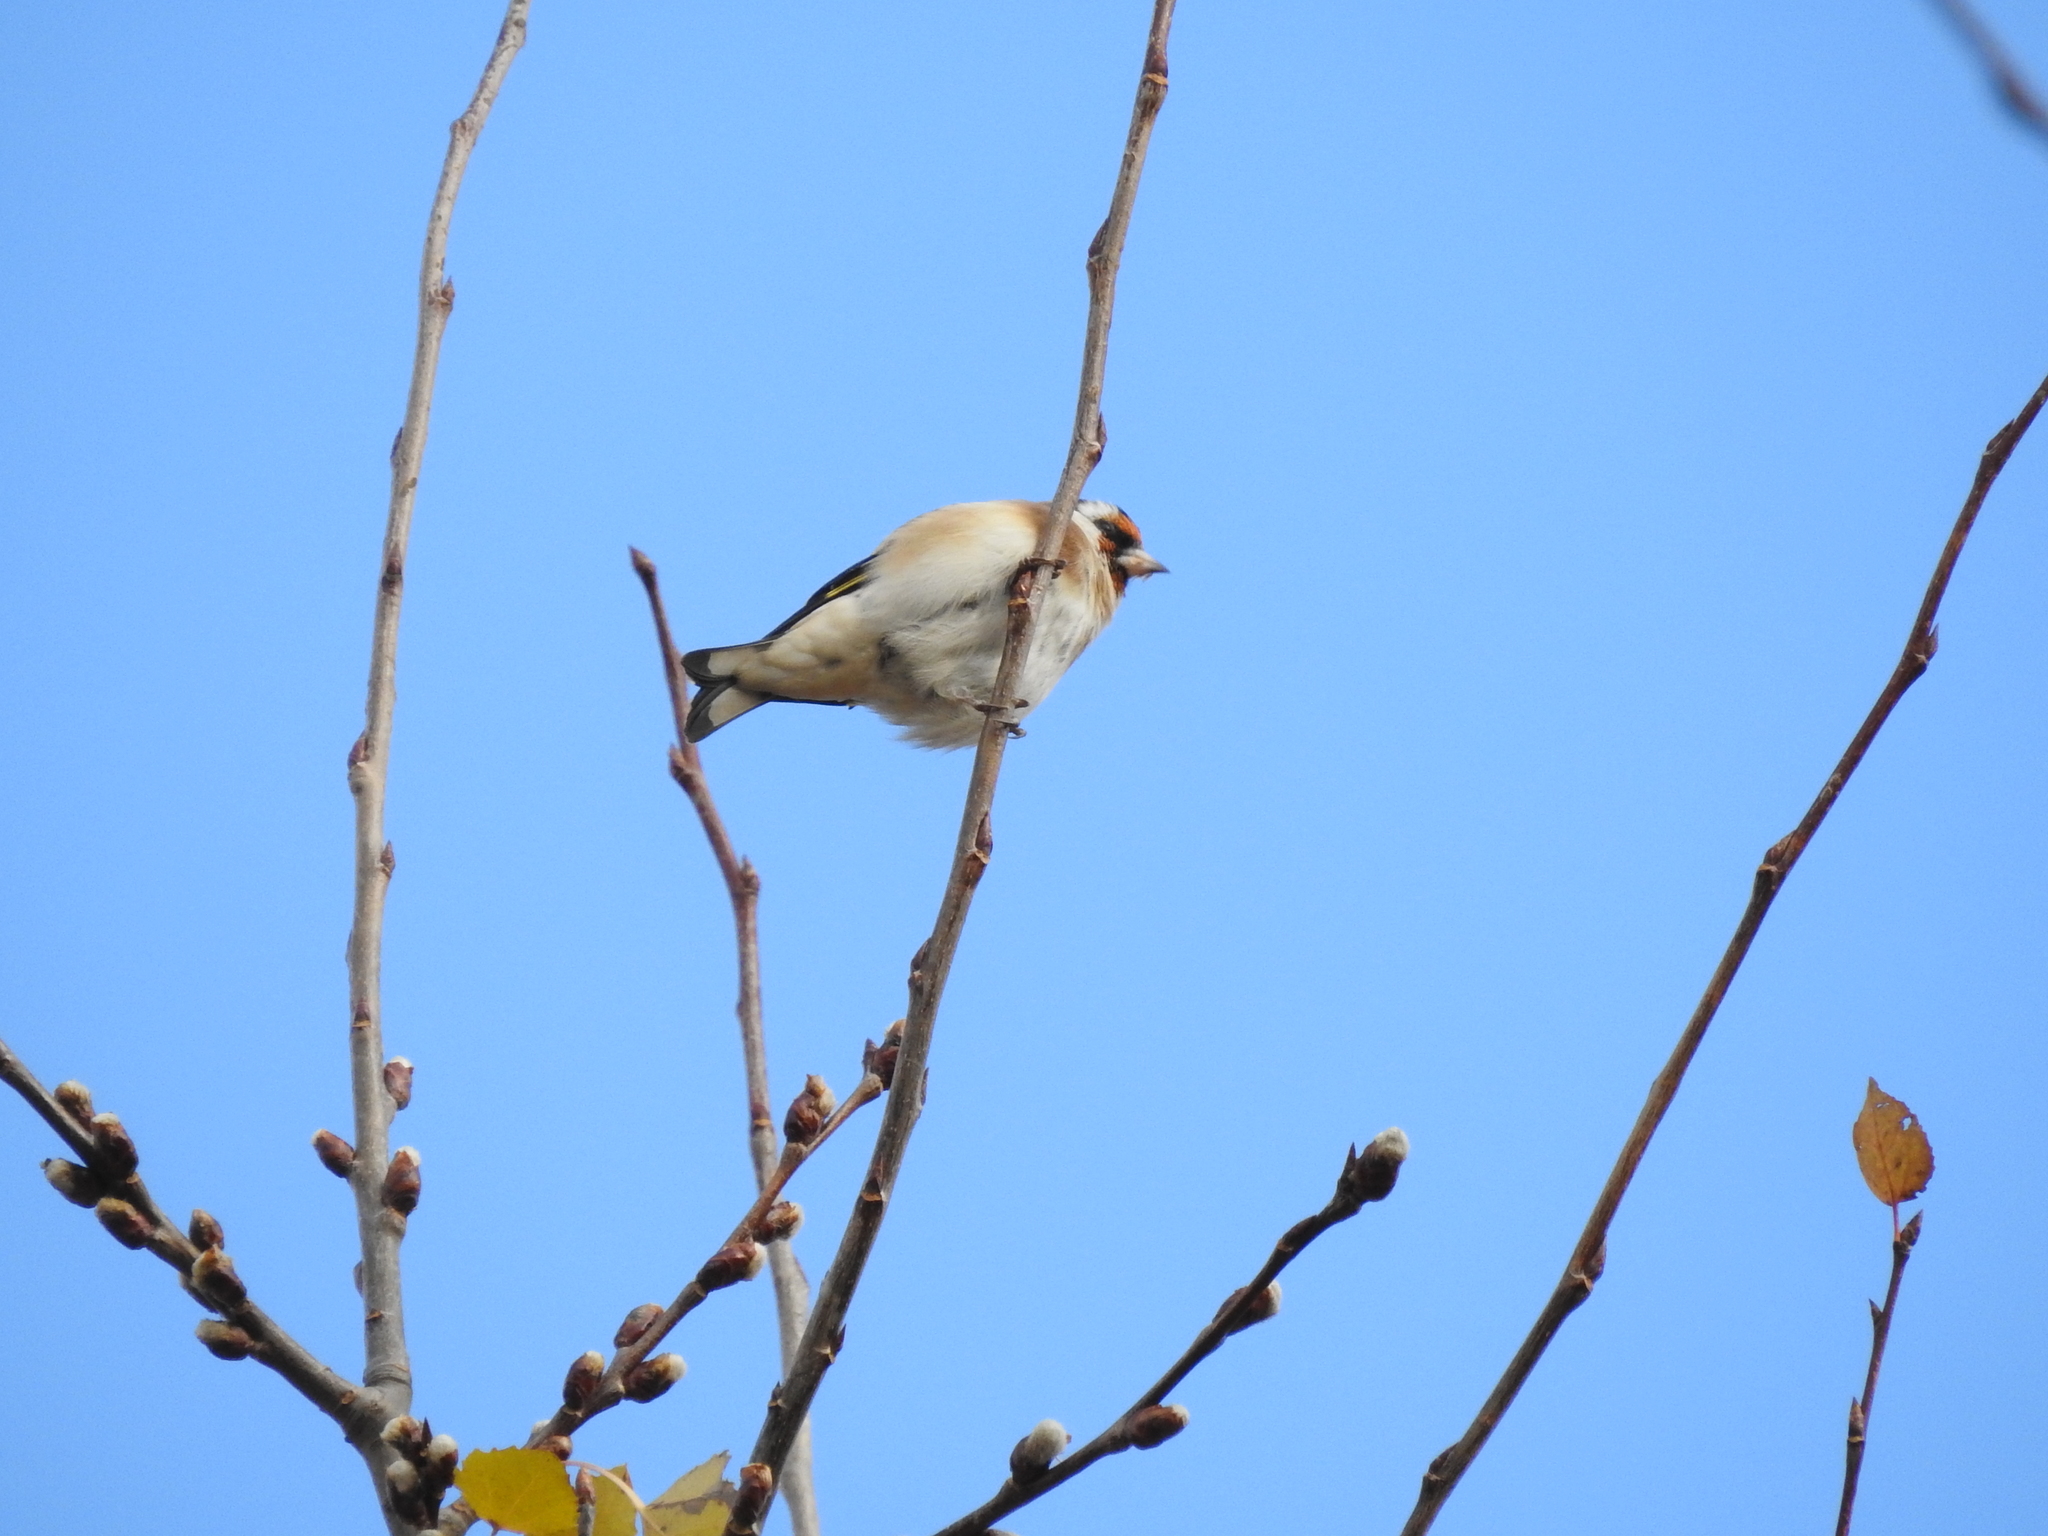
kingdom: Animalia
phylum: Chordata
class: Aves
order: Passeriformes
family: Fringillidae
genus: Carduelis
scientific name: Carduelis carduelis
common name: European goldfinch
